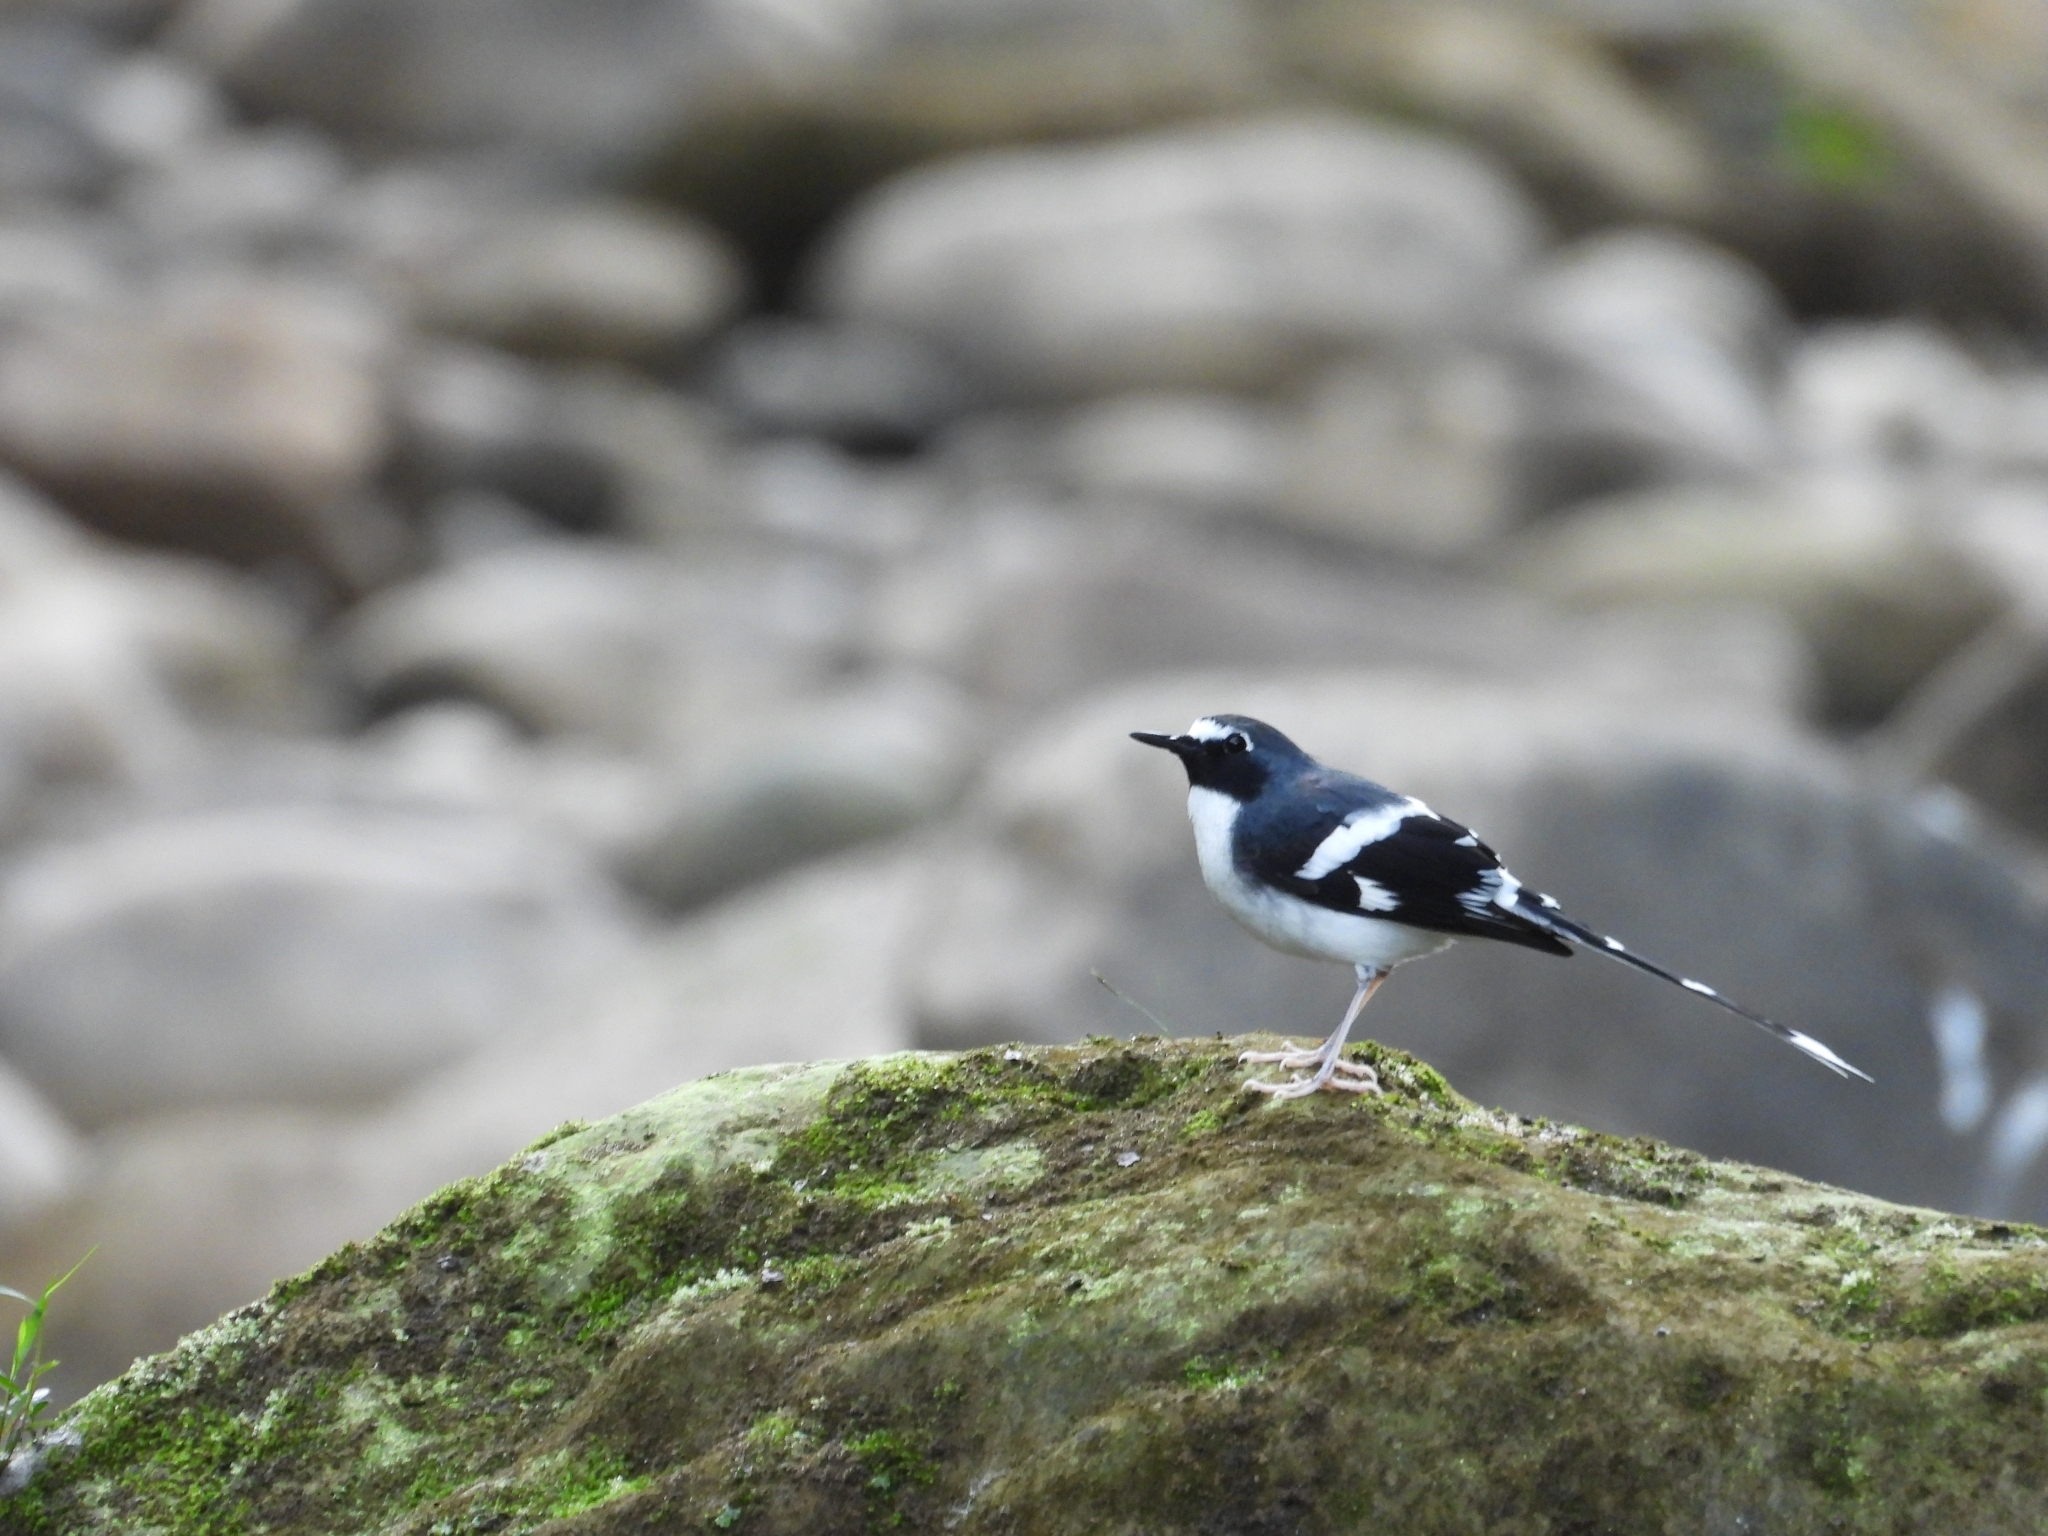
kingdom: Animalia
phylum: Chordata
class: Aves
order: Passeriformes
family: Muscicapidae
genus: Enicurus
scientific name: Enicurus schistaceus
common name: Slaty-backed forktail
